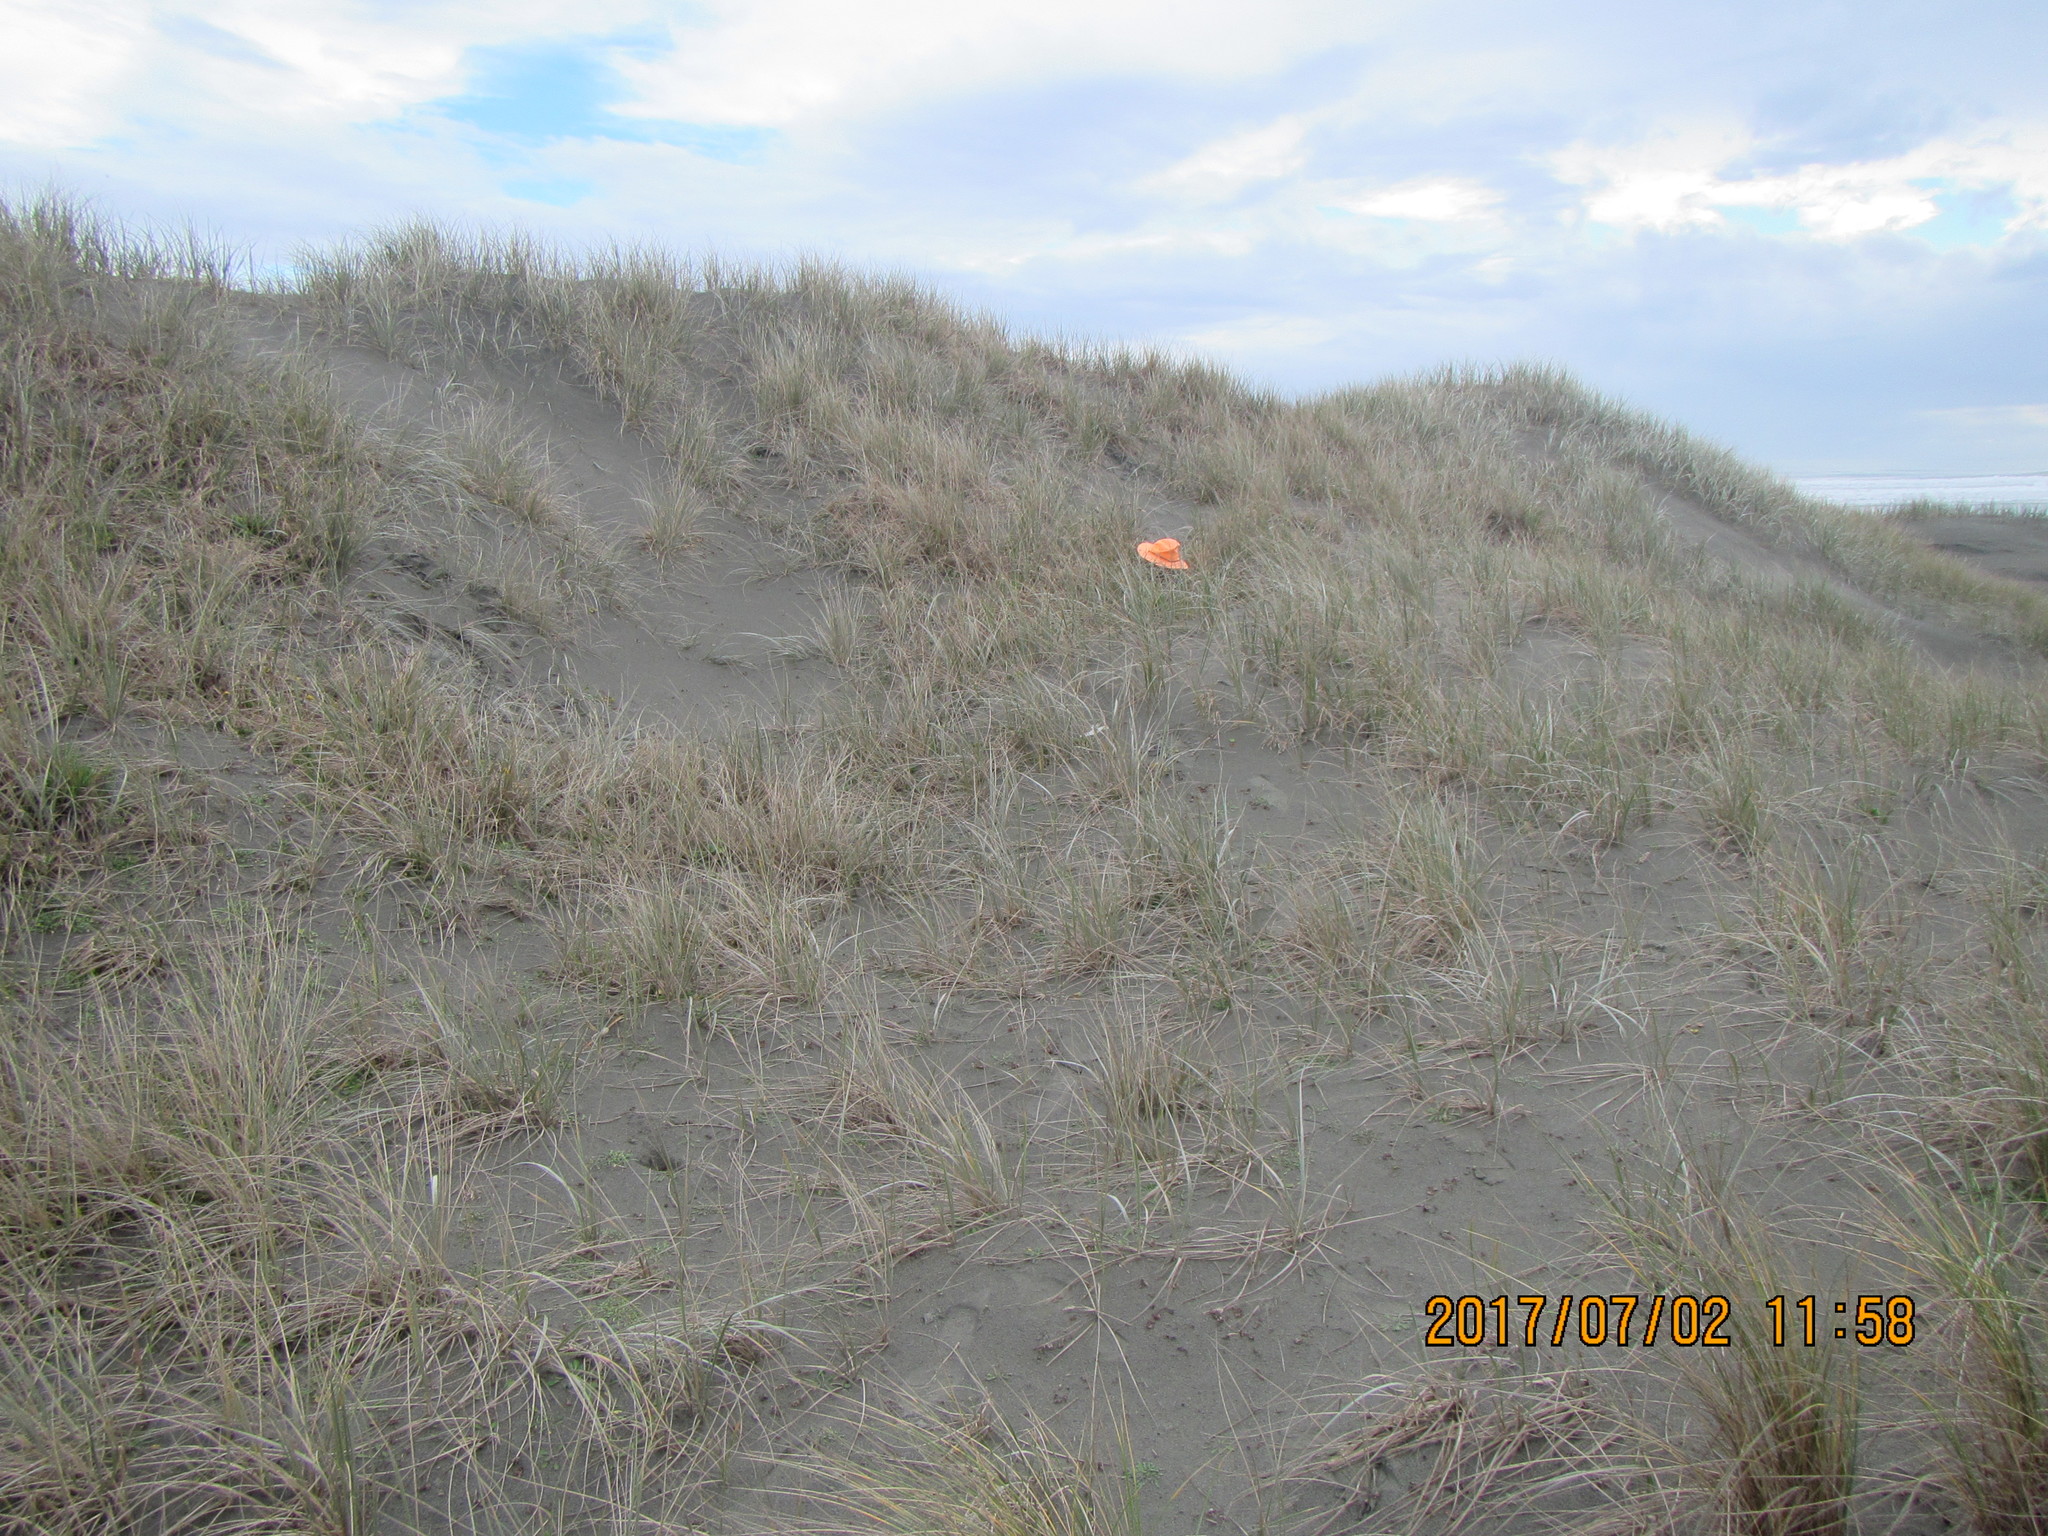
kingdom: Animalia
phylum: Arthropoda
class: Arachnida
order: Araneae
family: Mimetidae
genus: Australomimetus
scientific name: Australomimetus hartleyensis
